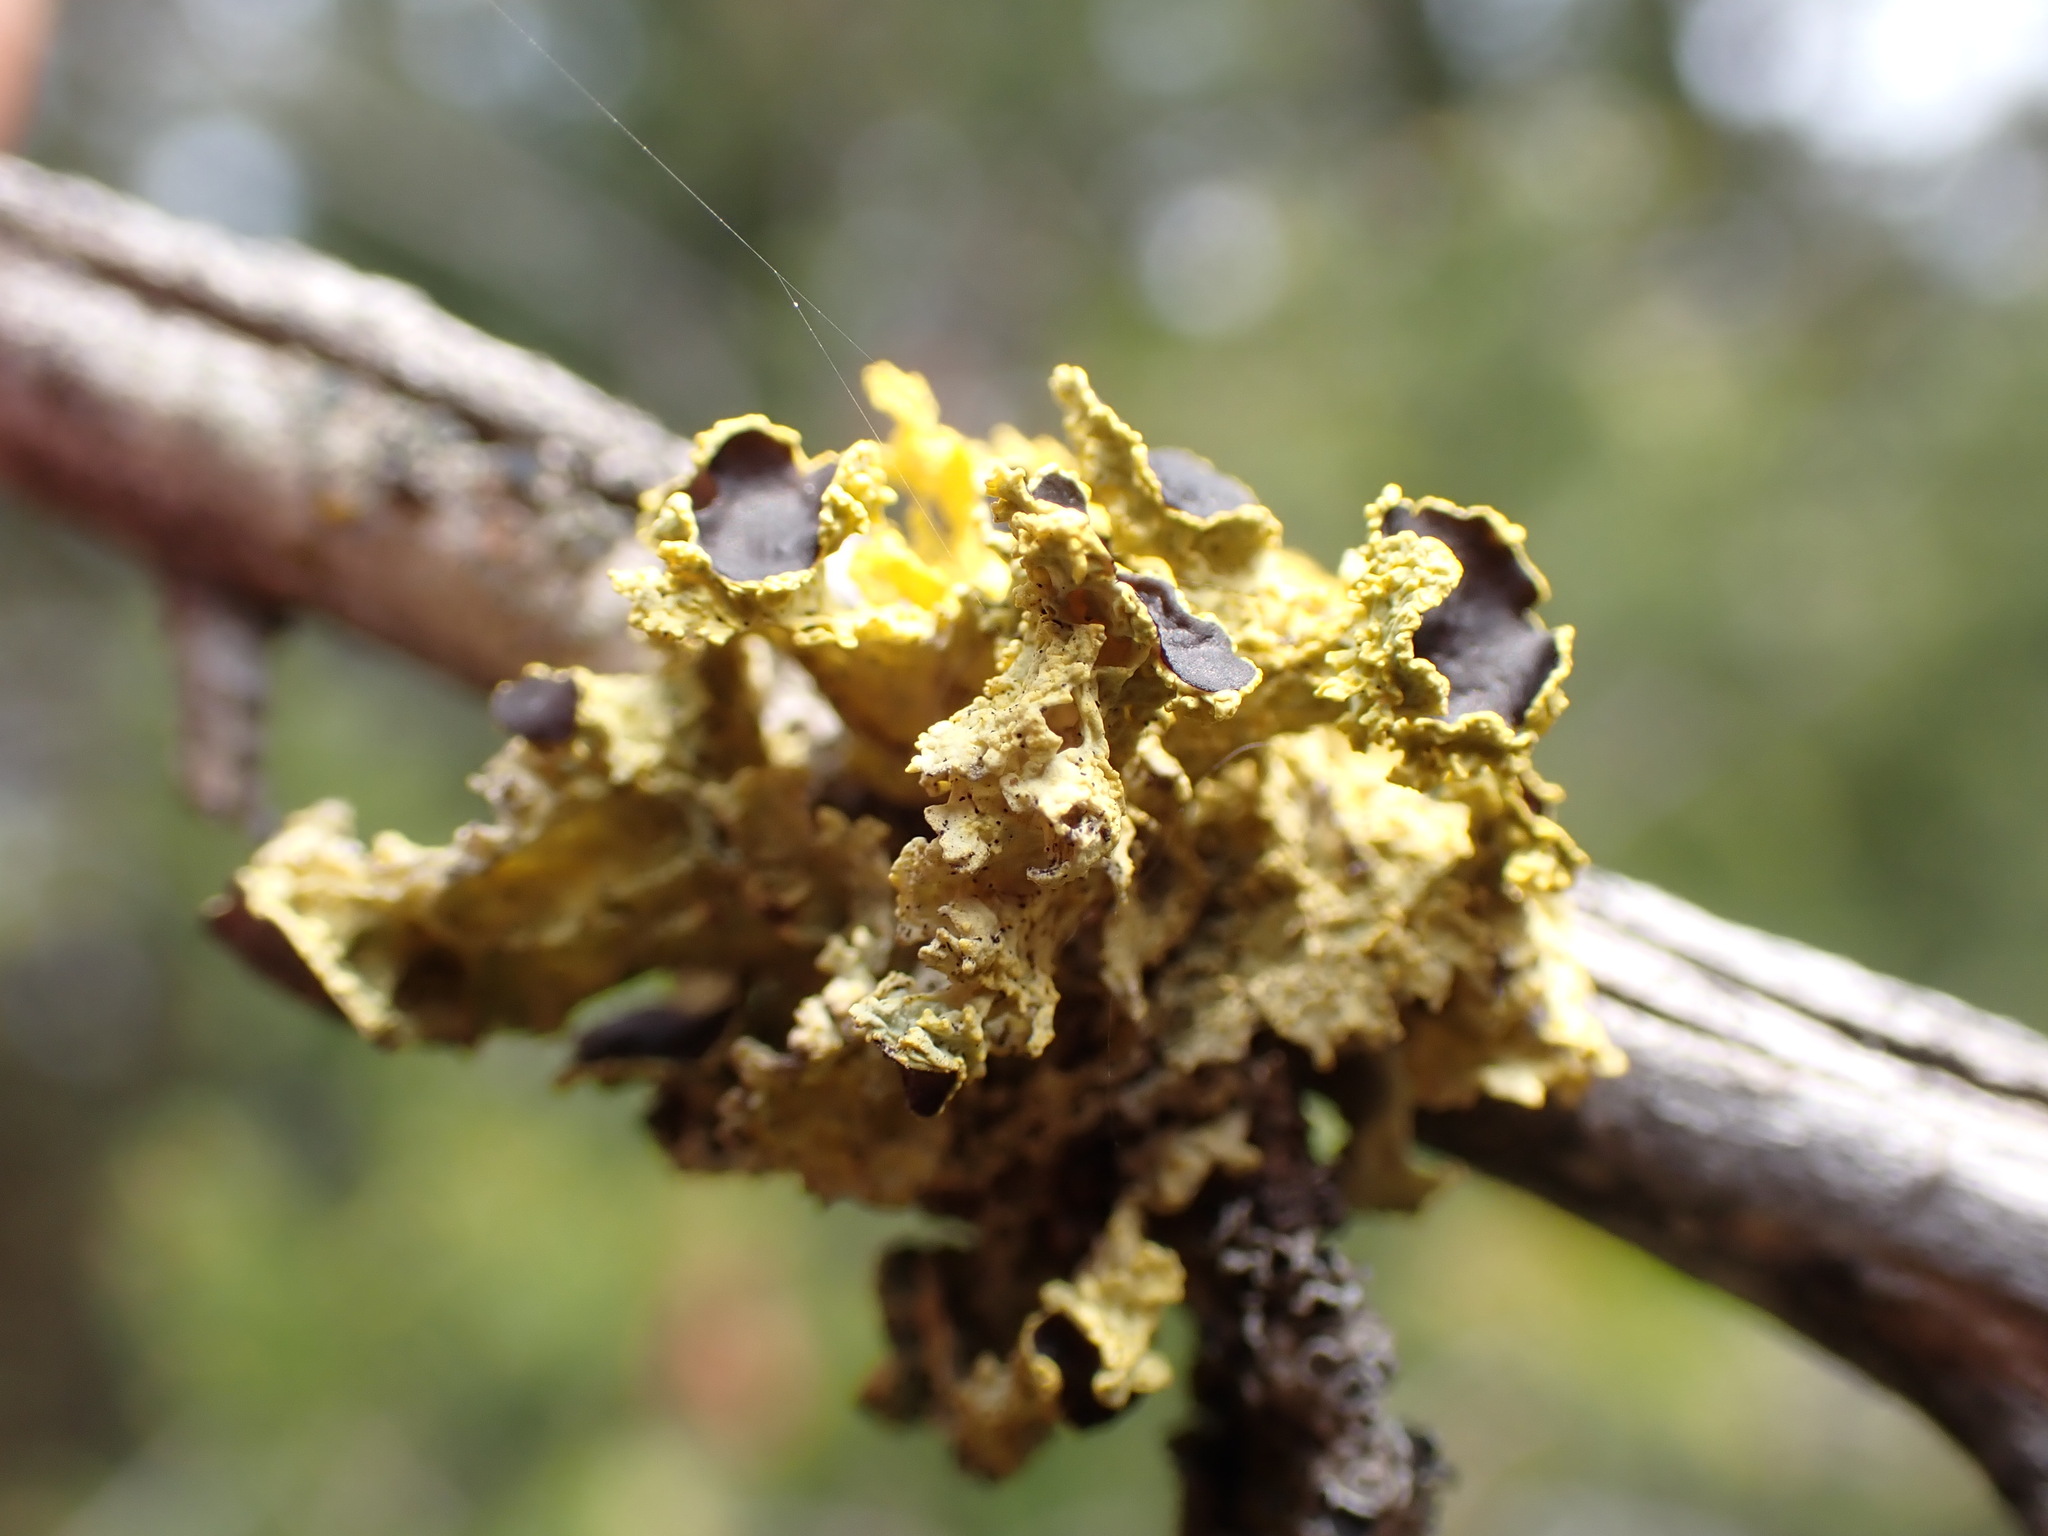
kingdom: Fungi
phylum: Ascomycota
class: Lecanoromycetes
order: Lecanorales
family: Parmeliaceae
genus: Vulpicida
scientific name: Vulpicida canadensis
